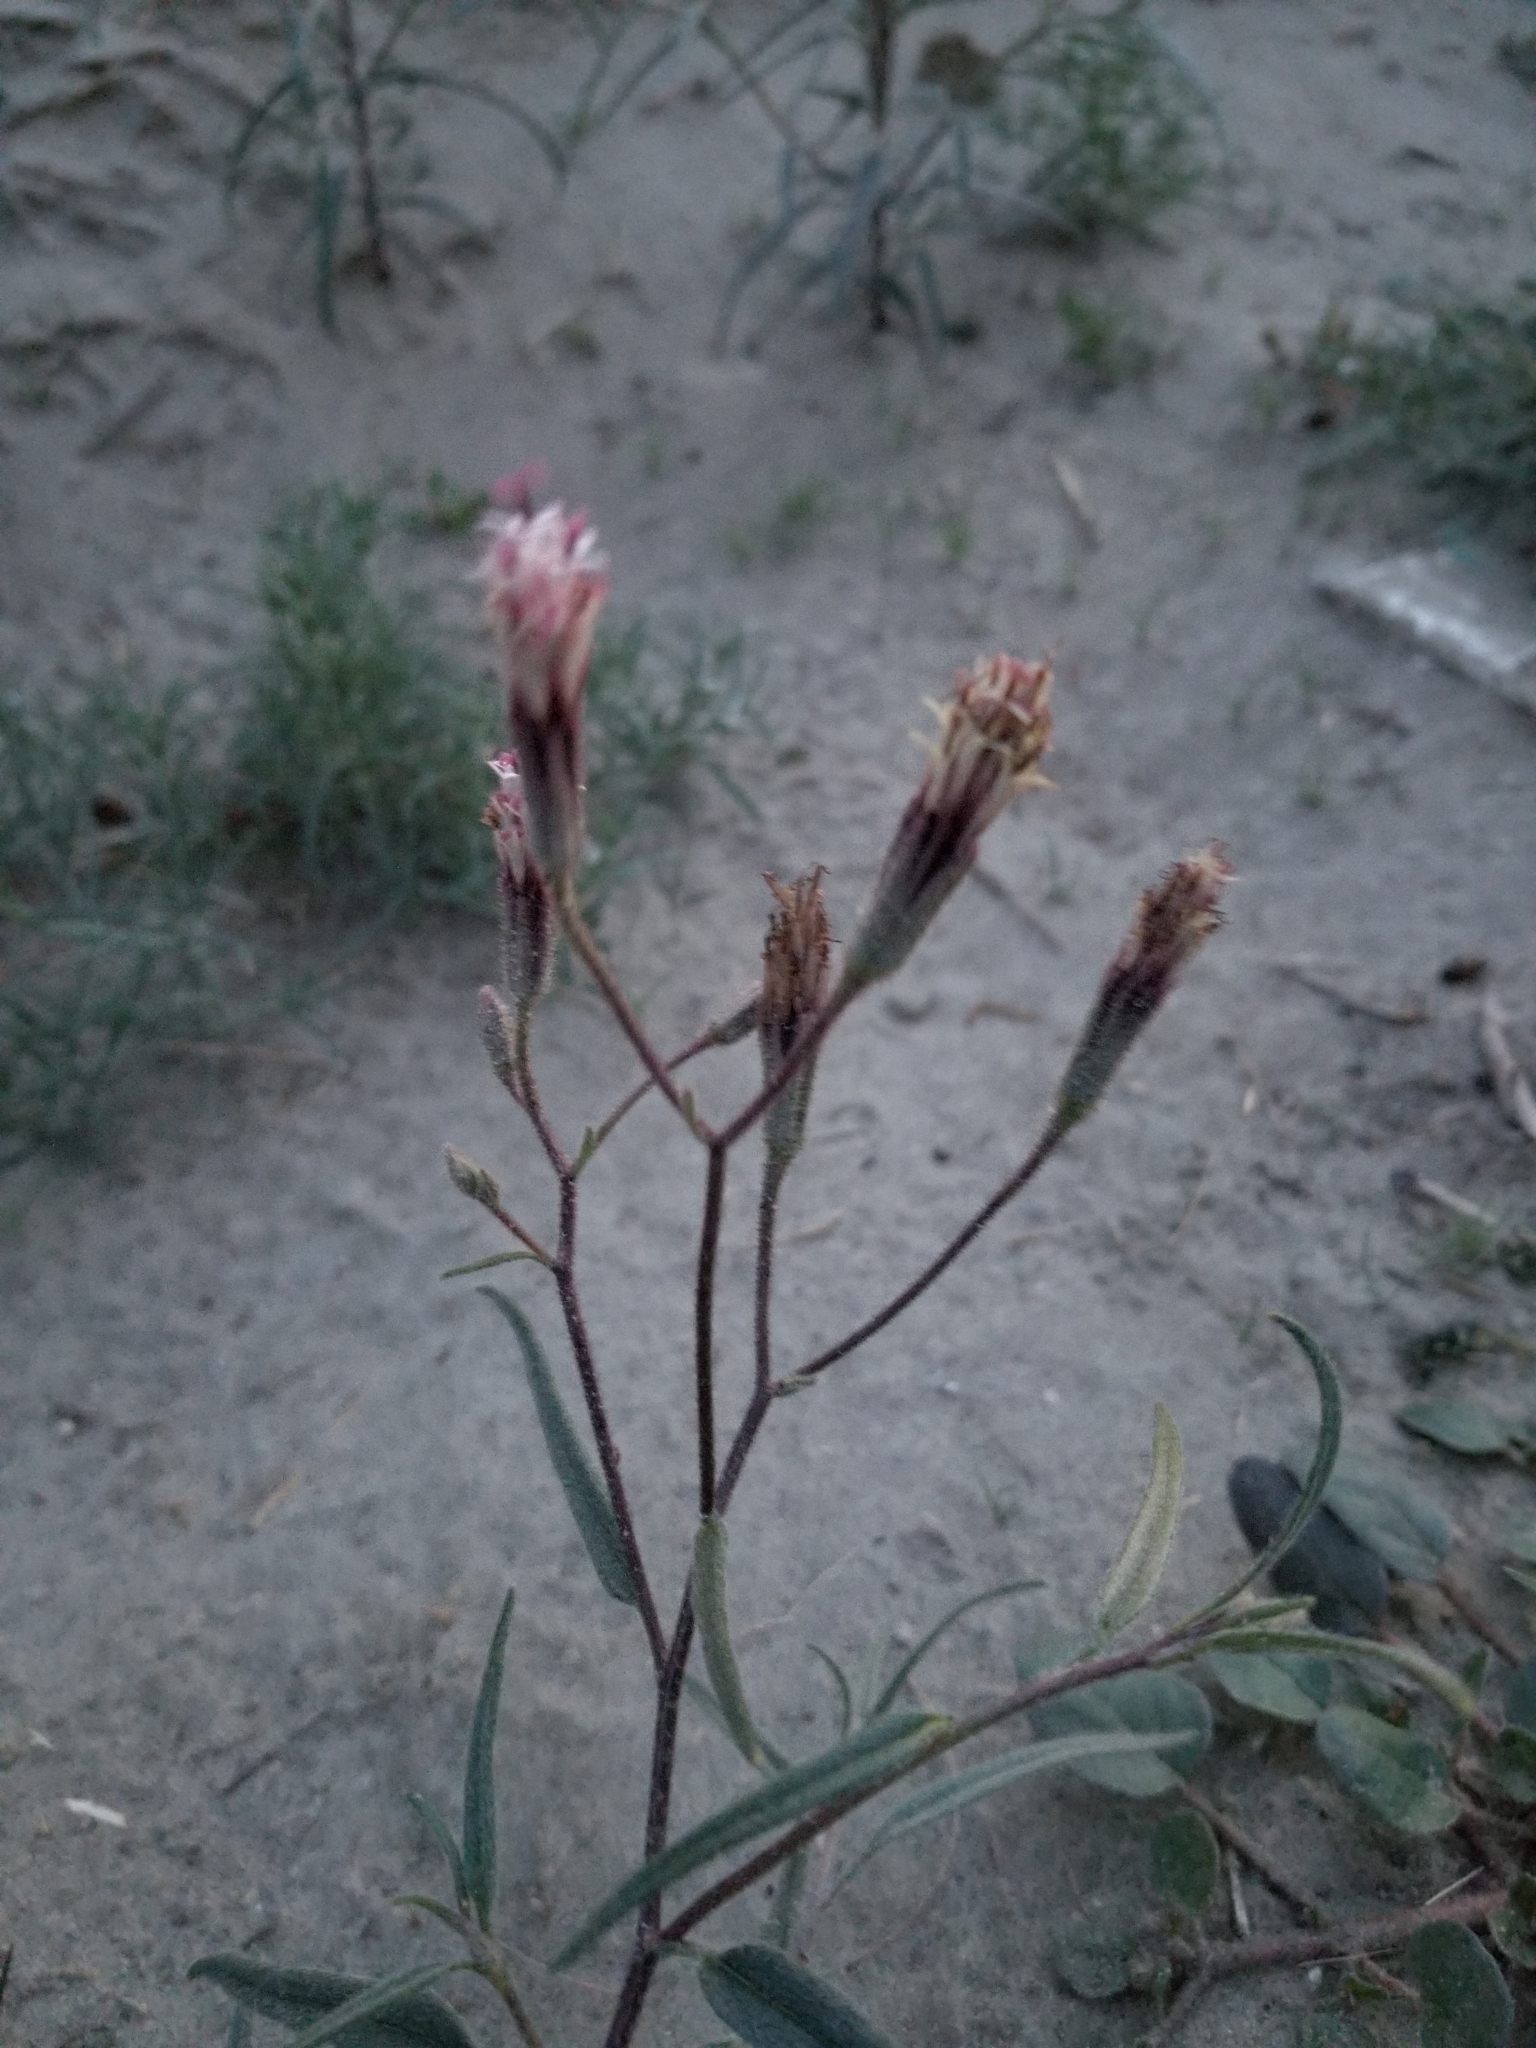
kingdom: Plantae
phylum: Tracheophyta
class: Magnoliopsida
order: Asterales
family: Asteraceae
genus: Palafoxia
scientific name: Palafoxia arida
